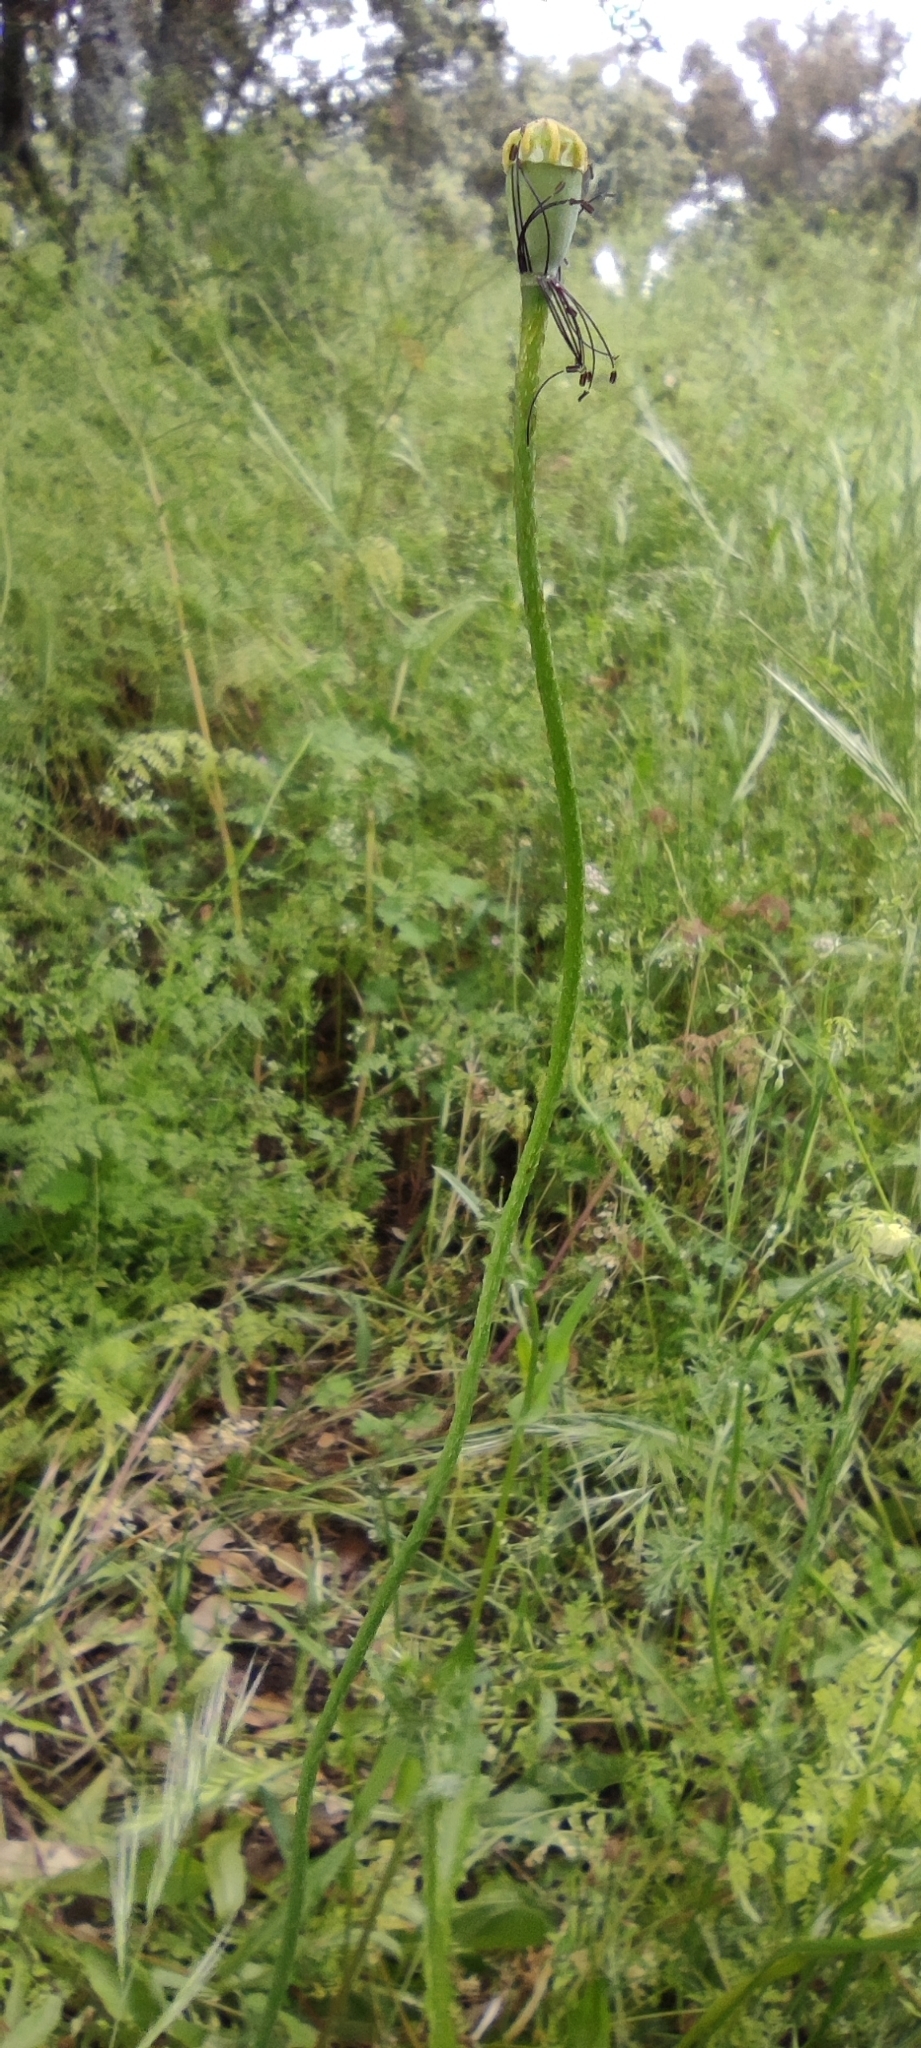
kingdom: Plantae
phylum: Tracheophyta
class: Magnoliopsida
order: Ranunculales
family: Papaveraceae
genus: Papaver
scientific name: Papaver dubium
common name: Long-headed poppy
